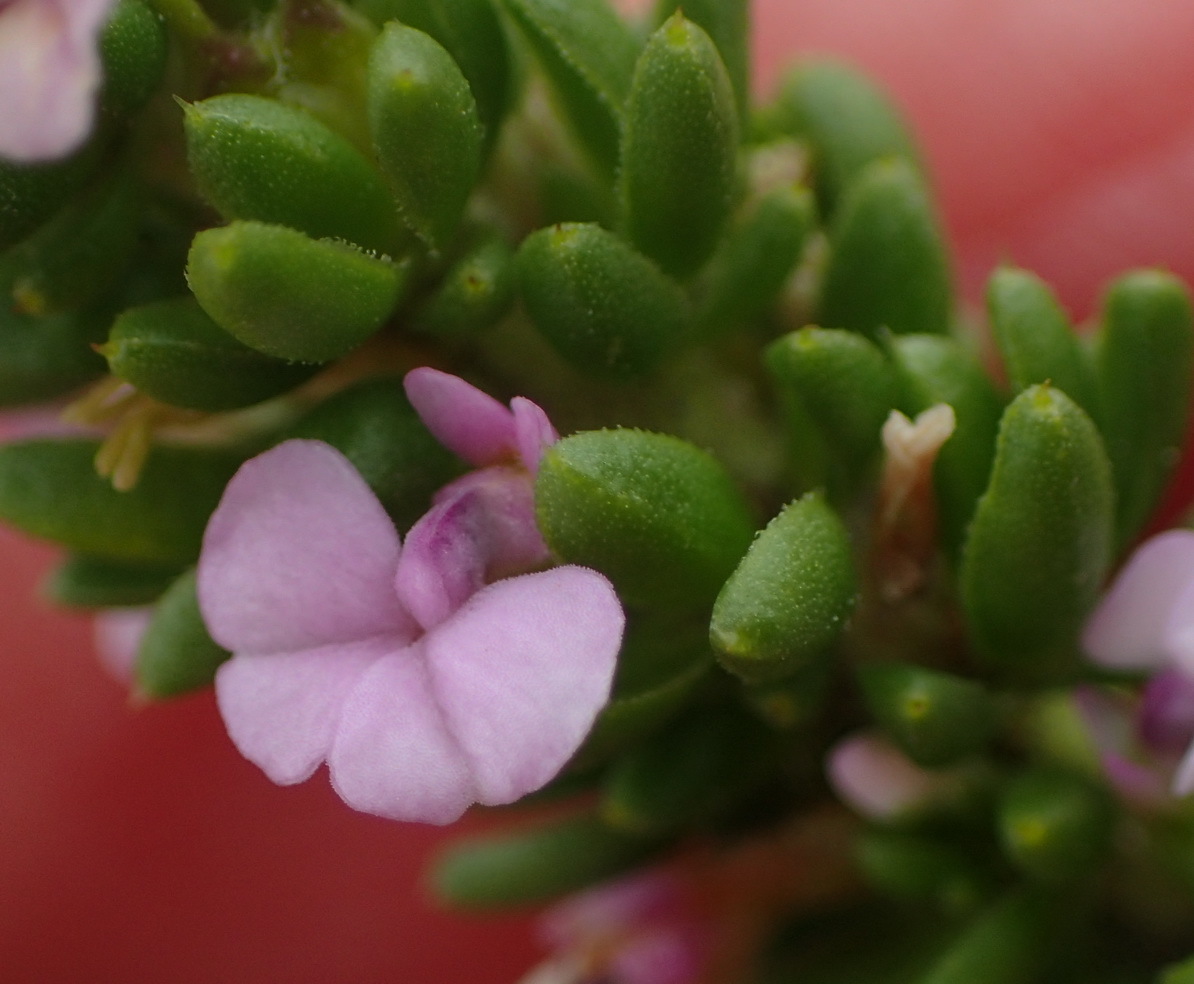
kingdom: Plantae
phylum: Tracheophyta
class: Magnoliopsida
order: Fabales
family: Polygalaceae
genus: Muraltia
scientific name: Muraltia satureioides
